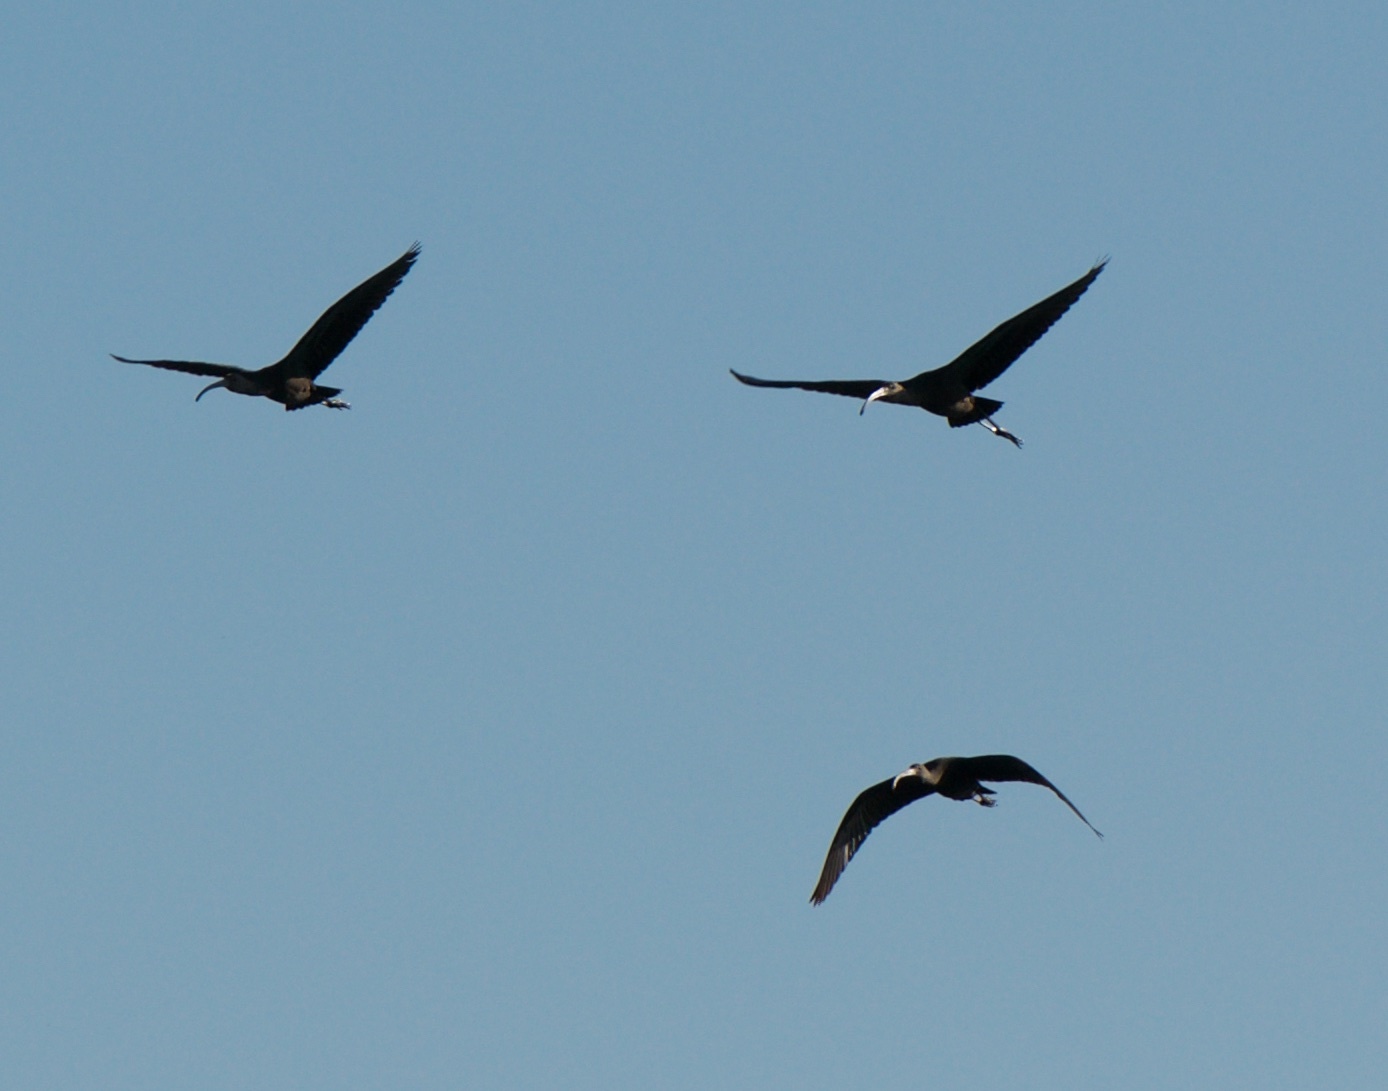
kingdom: Animalia
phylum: Chordata
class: Aves
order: Pelecaniformes
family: Threskiornithidae
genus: Plegadis
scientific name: Plegadis chihi
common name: White-faced ibis
